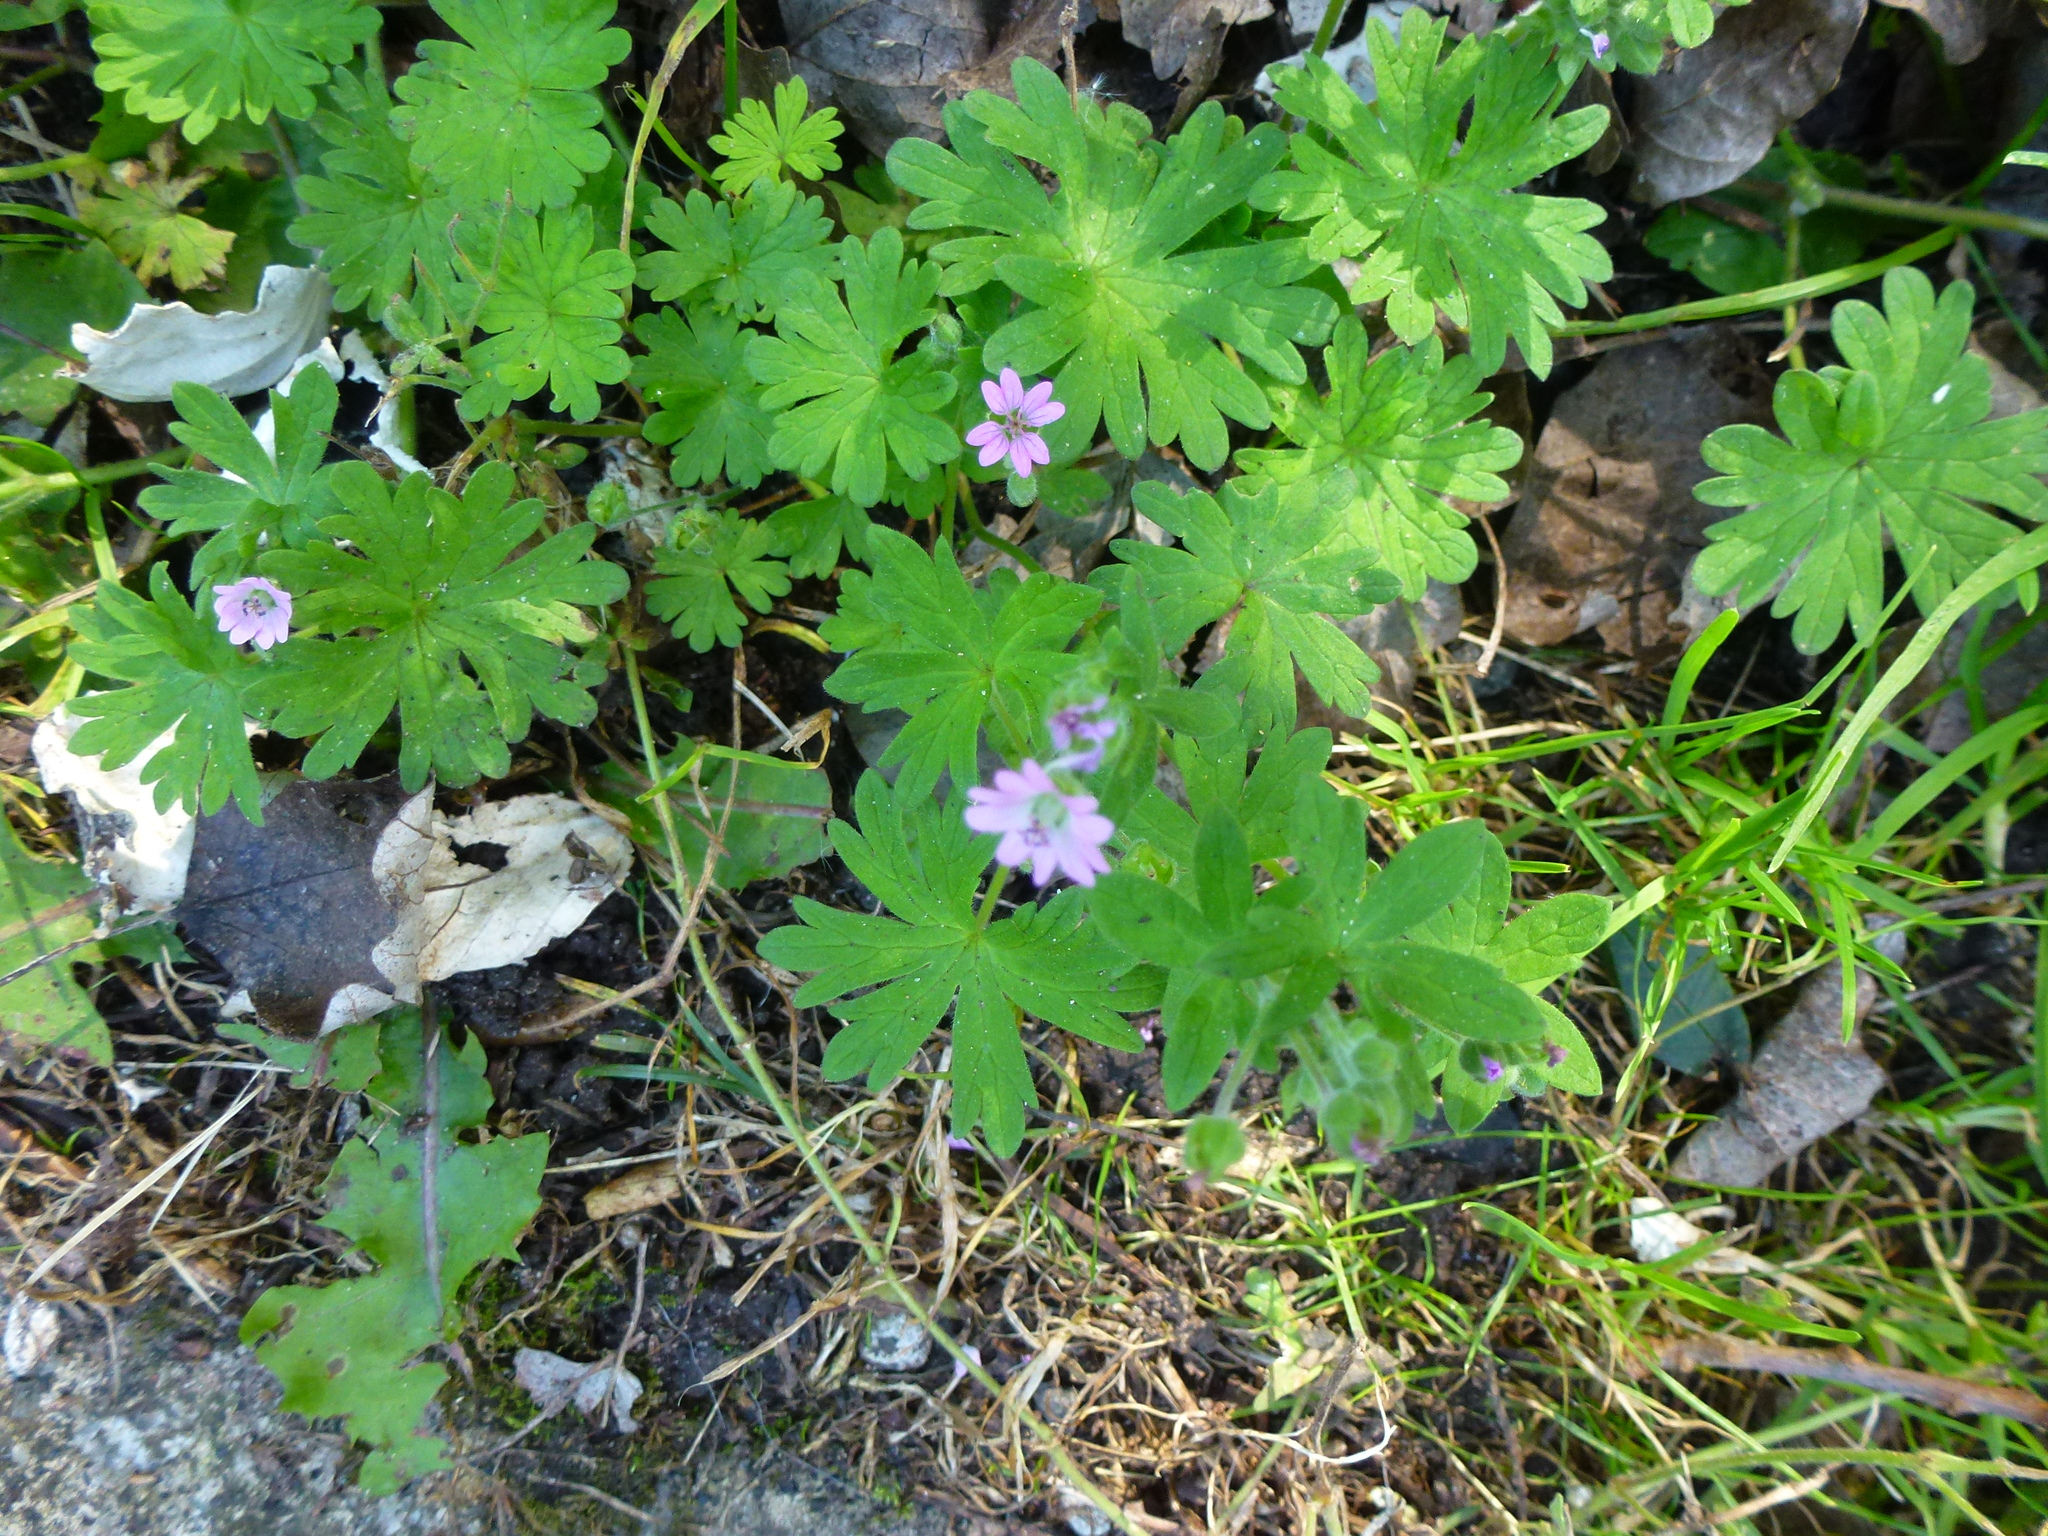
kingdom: Plantae
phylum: Tracheophyta
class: Magnoliopsida
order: Geraniales
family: Geraniaceae
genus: Geranium
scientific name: Geranium molle
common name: Dove's-foot crane's-bill
